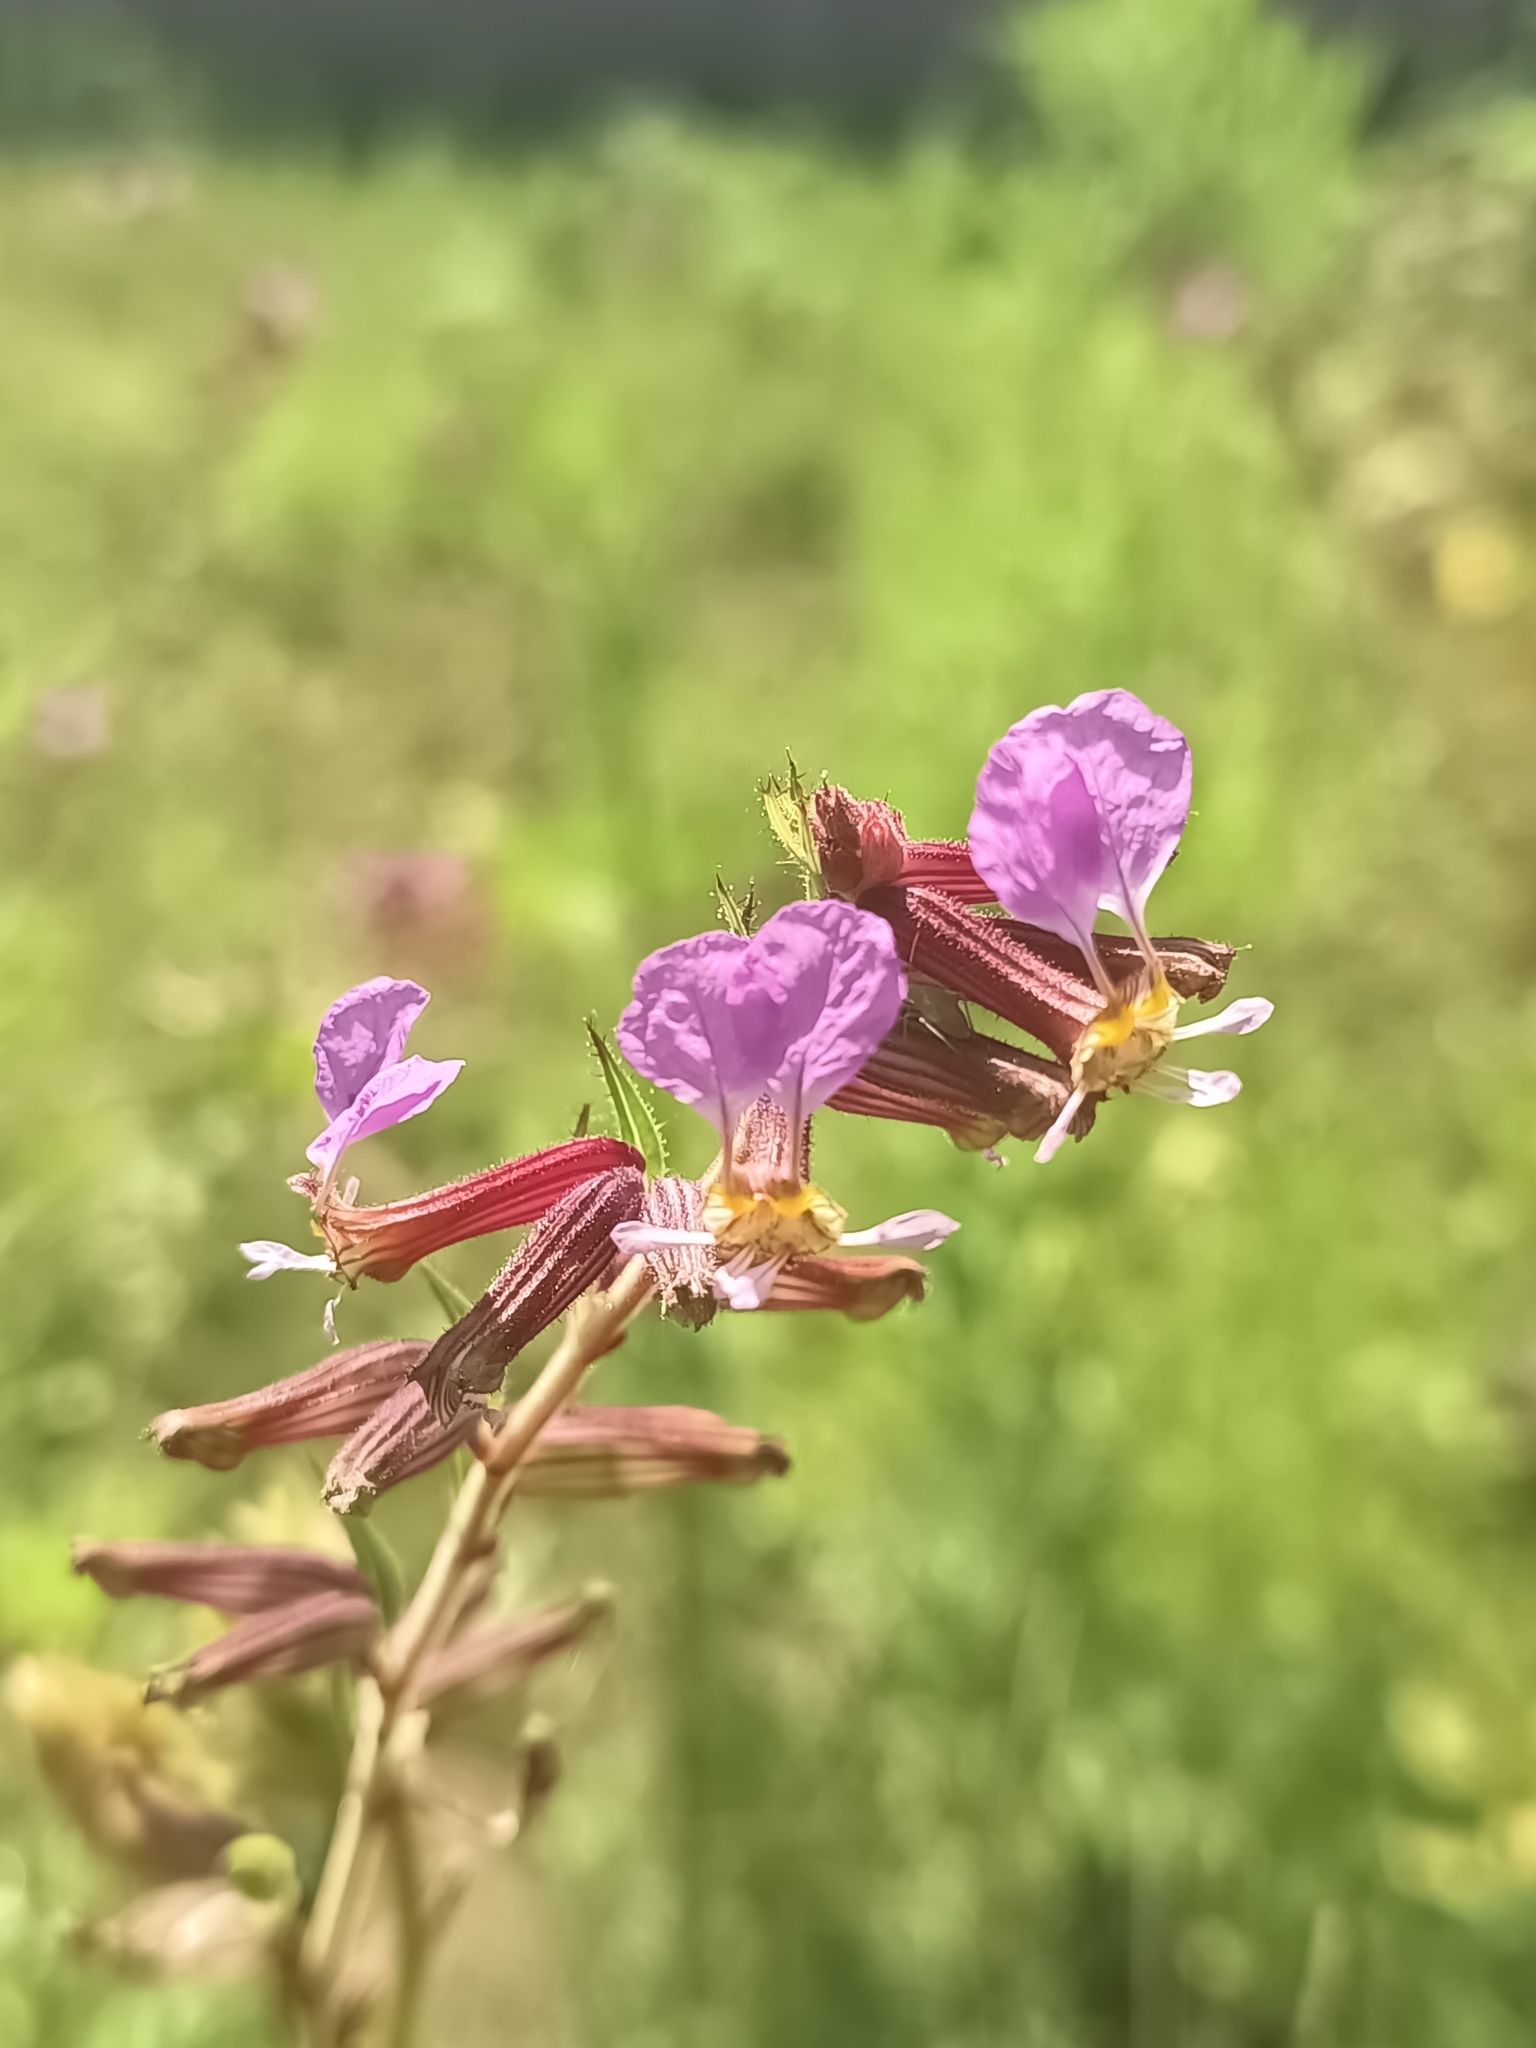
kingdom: Plantae
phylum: Tracheophyta
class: Magnoliopsida
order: Myrtales
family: Lythraceae
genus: Cuphea
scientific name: Cuphea wrightii
